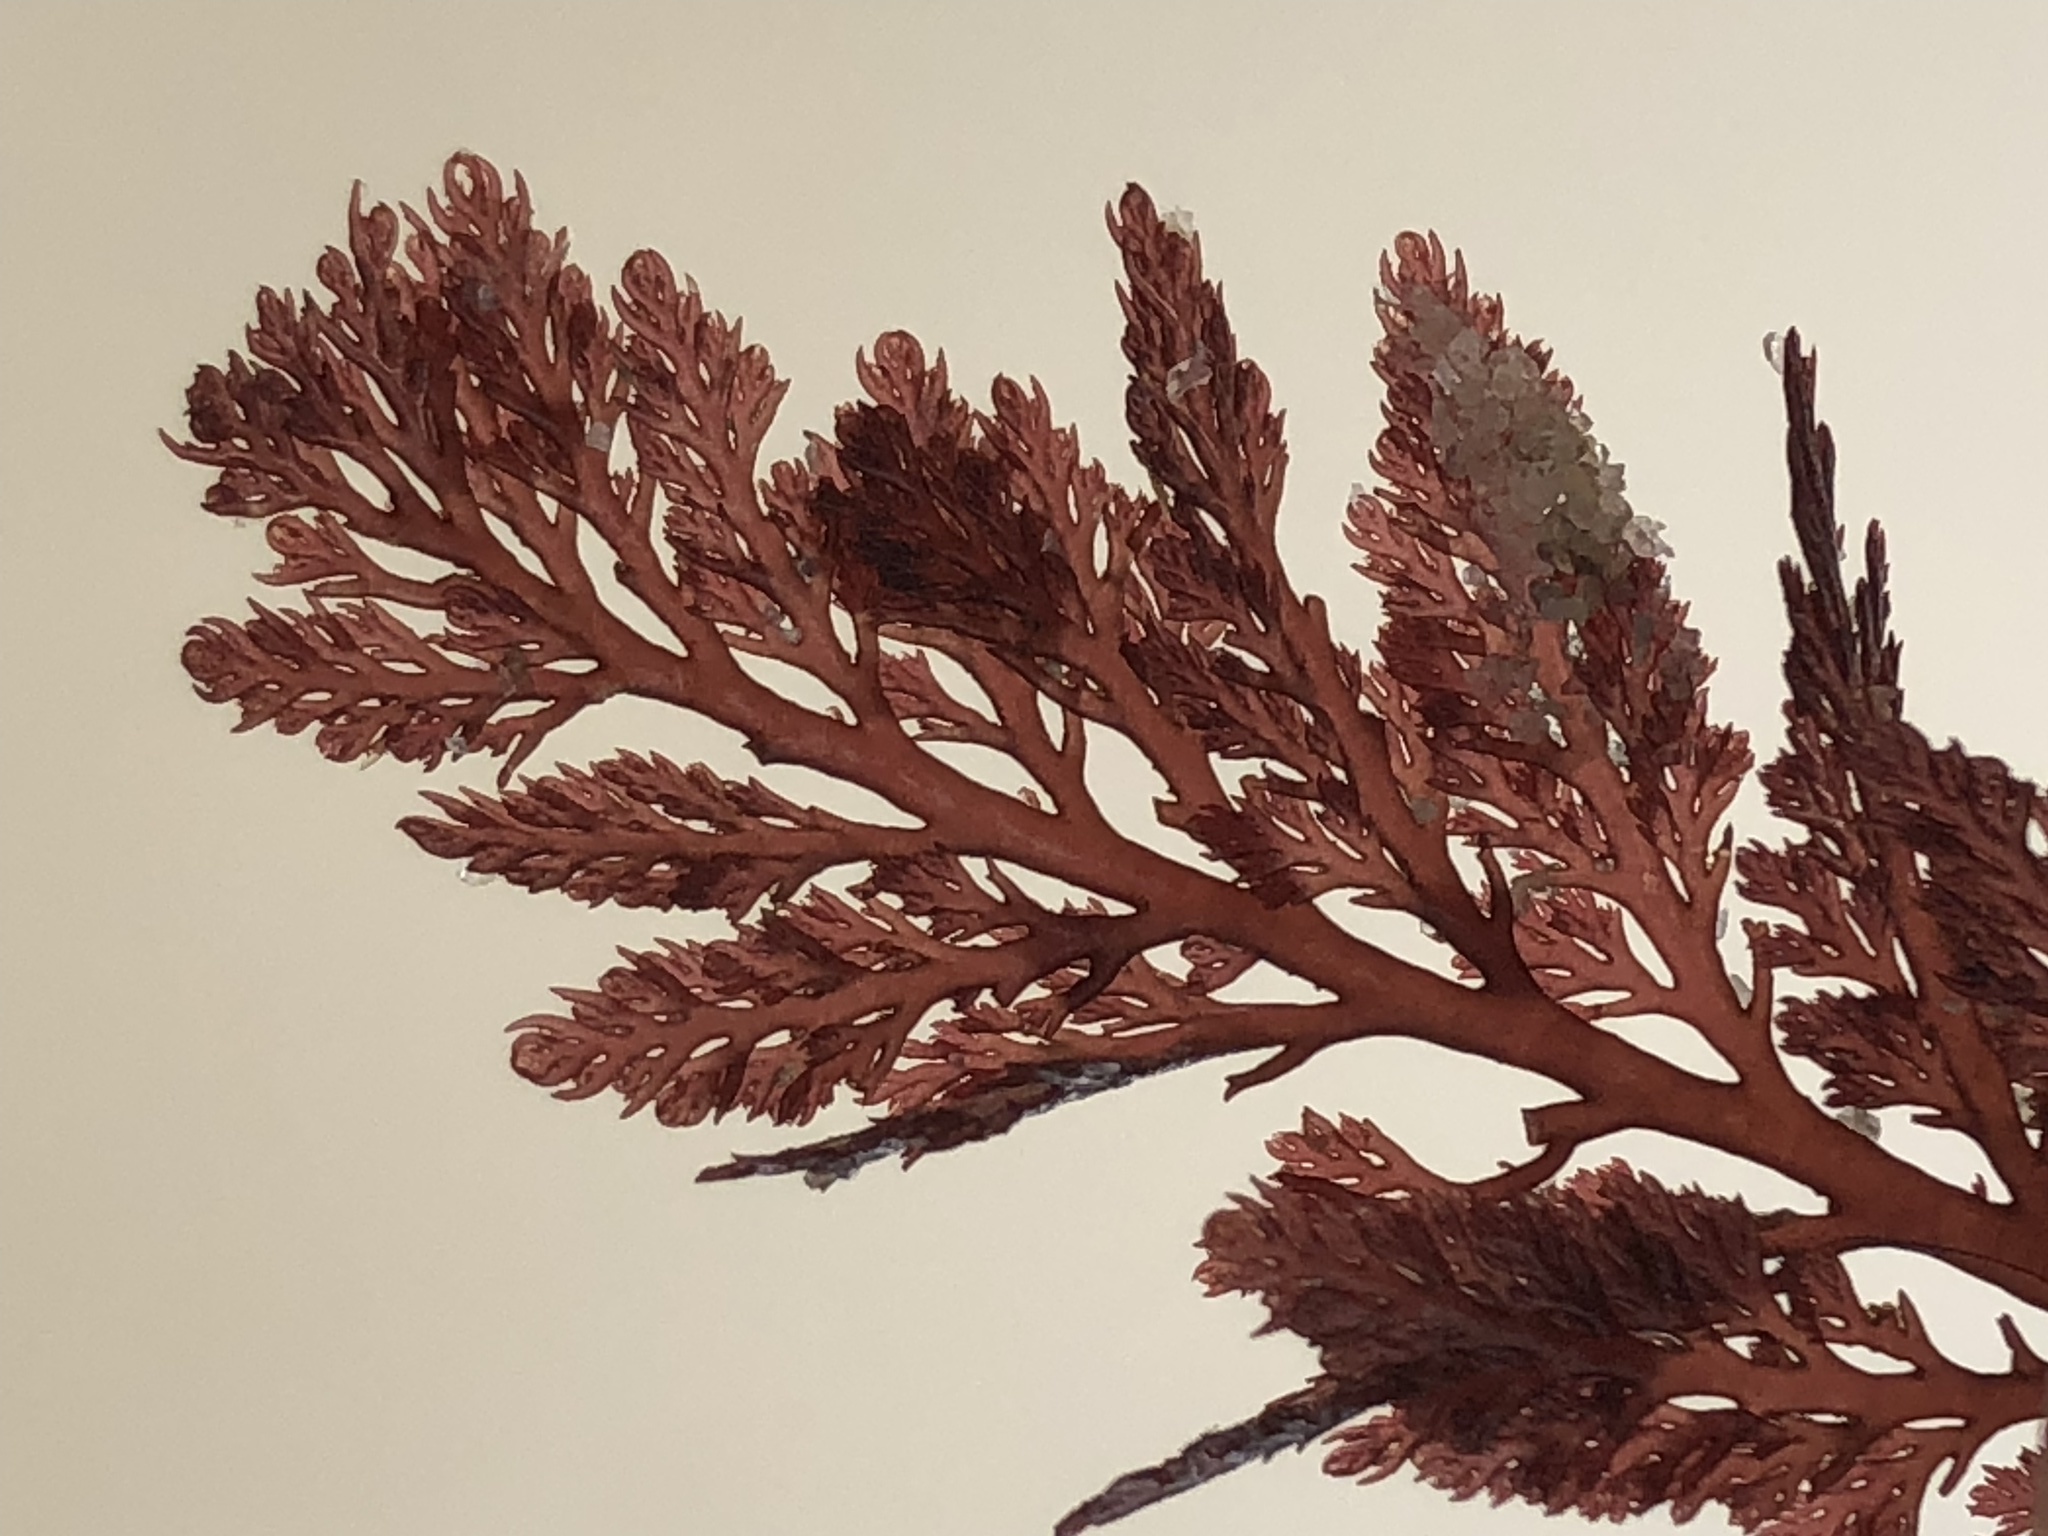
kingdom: Plantae
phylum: Rhodophyta
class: Florideophyceae
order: Ceramiales
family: Ceramiaceae
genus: Microcladia
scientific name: Microcladia coulteri
